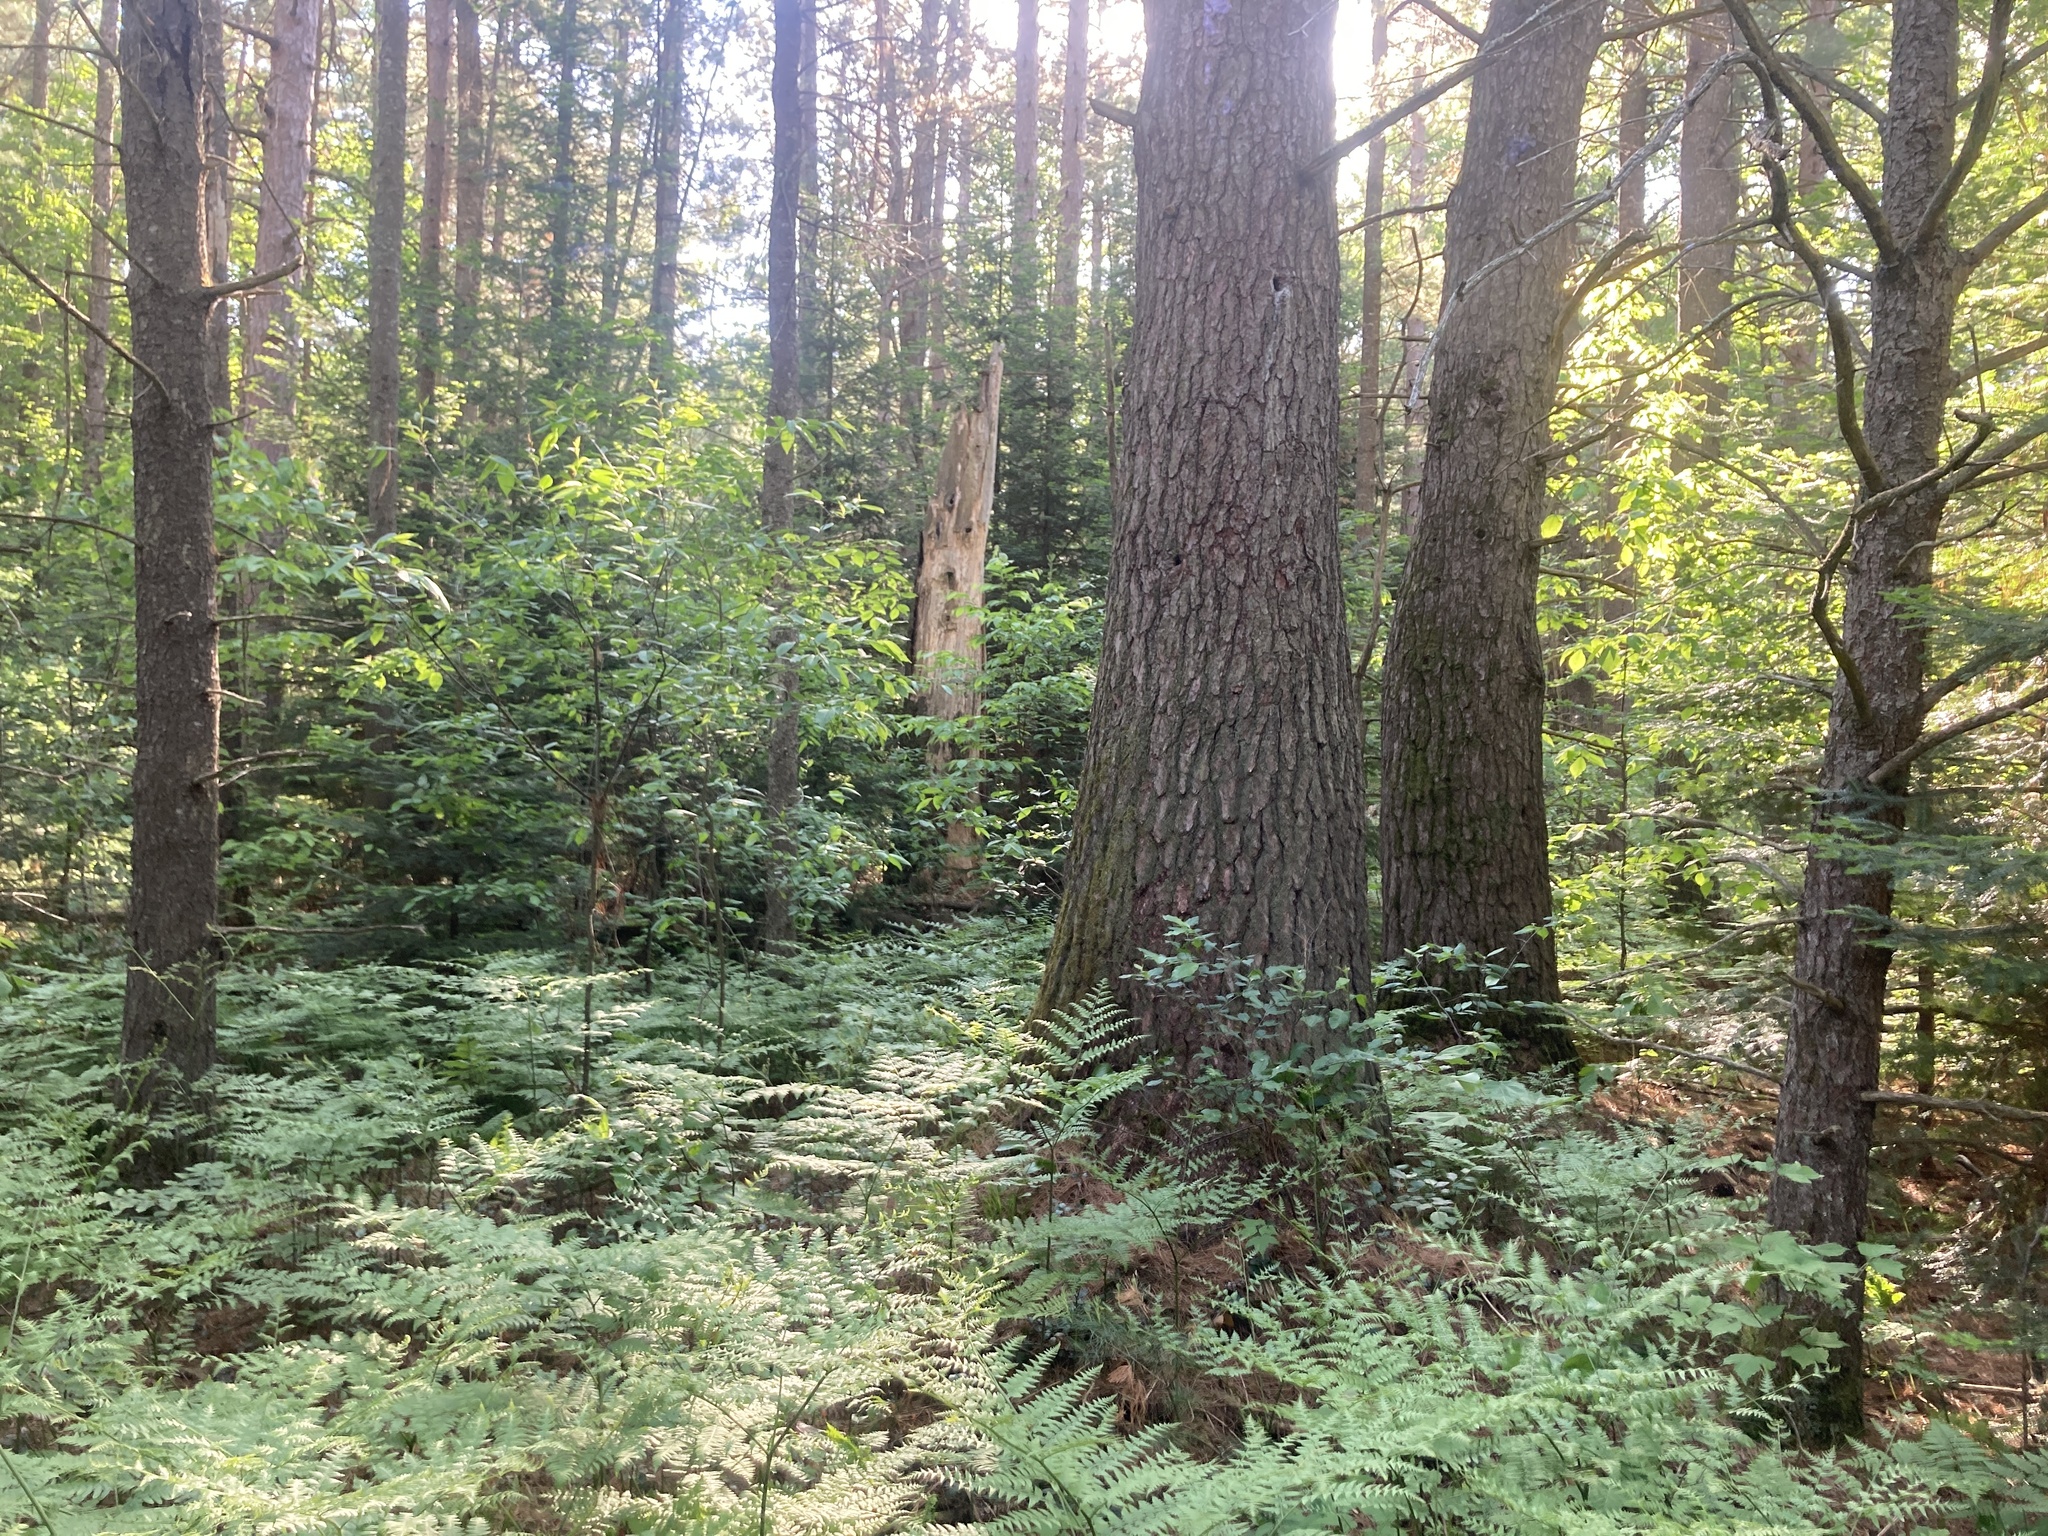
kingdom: Plantae
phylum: Tracheophyta
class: Pinopsida
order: Pinales
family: Pinaceae
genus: Pinus
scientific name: Pinus strobus
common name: Weymouth pine
